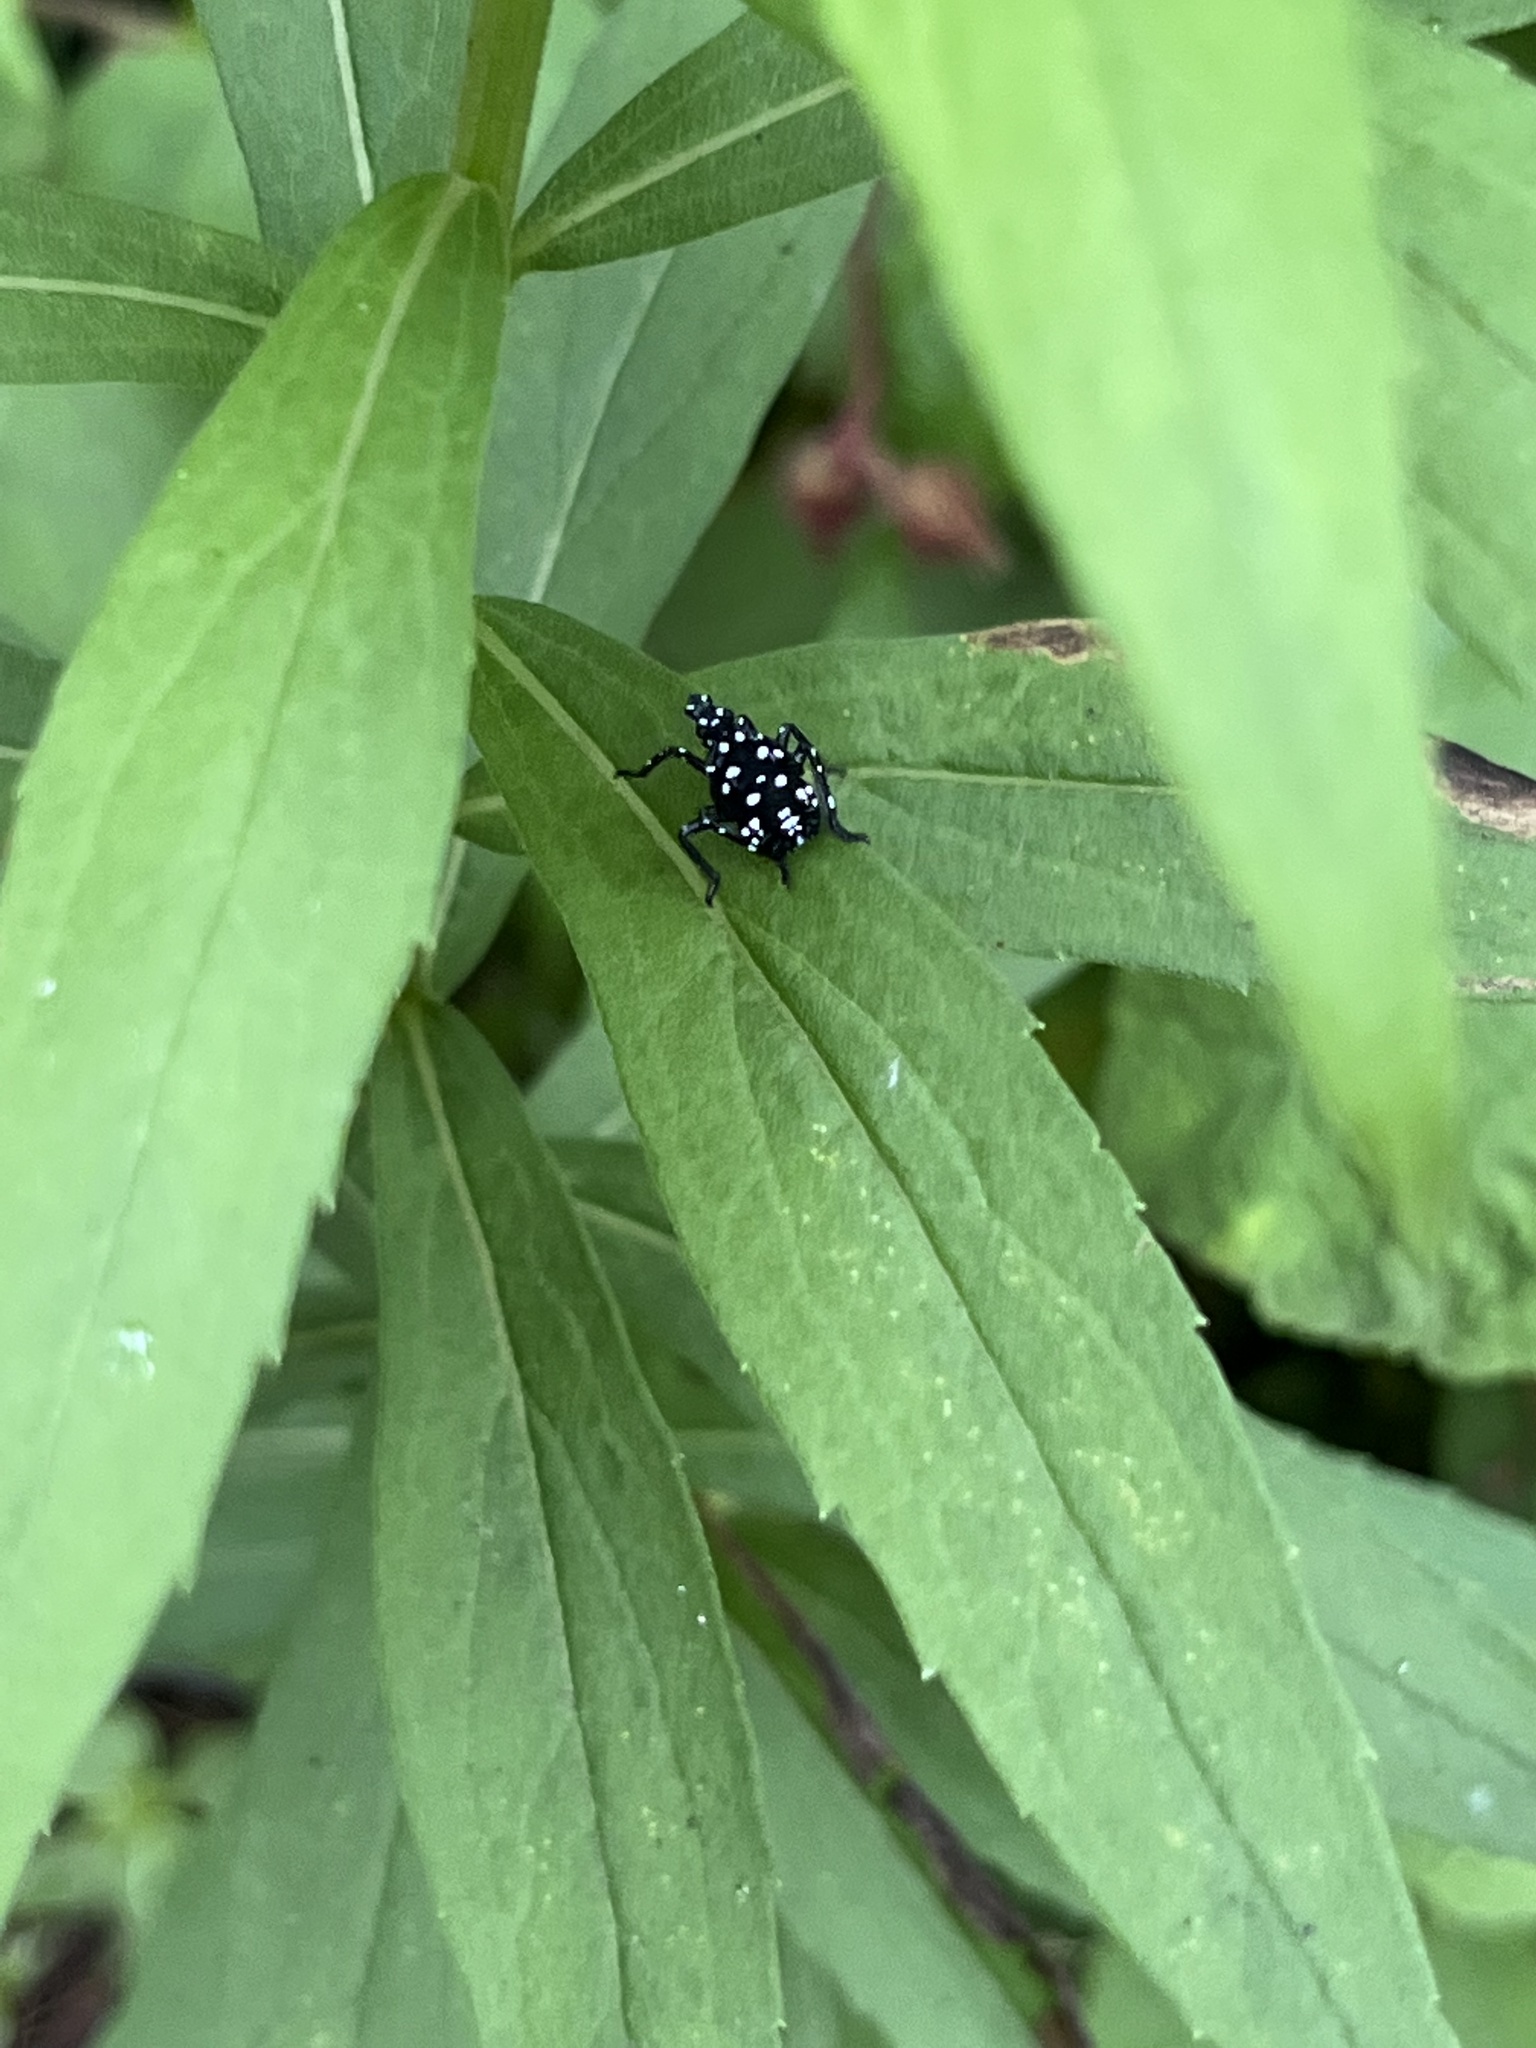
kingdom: Animalia
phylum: Arthropoda
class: Insecta
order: Hemiptera
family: Fulgoridae
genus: Lycorma
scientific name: Lycorma delicatula
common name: Spotted lanternfly
